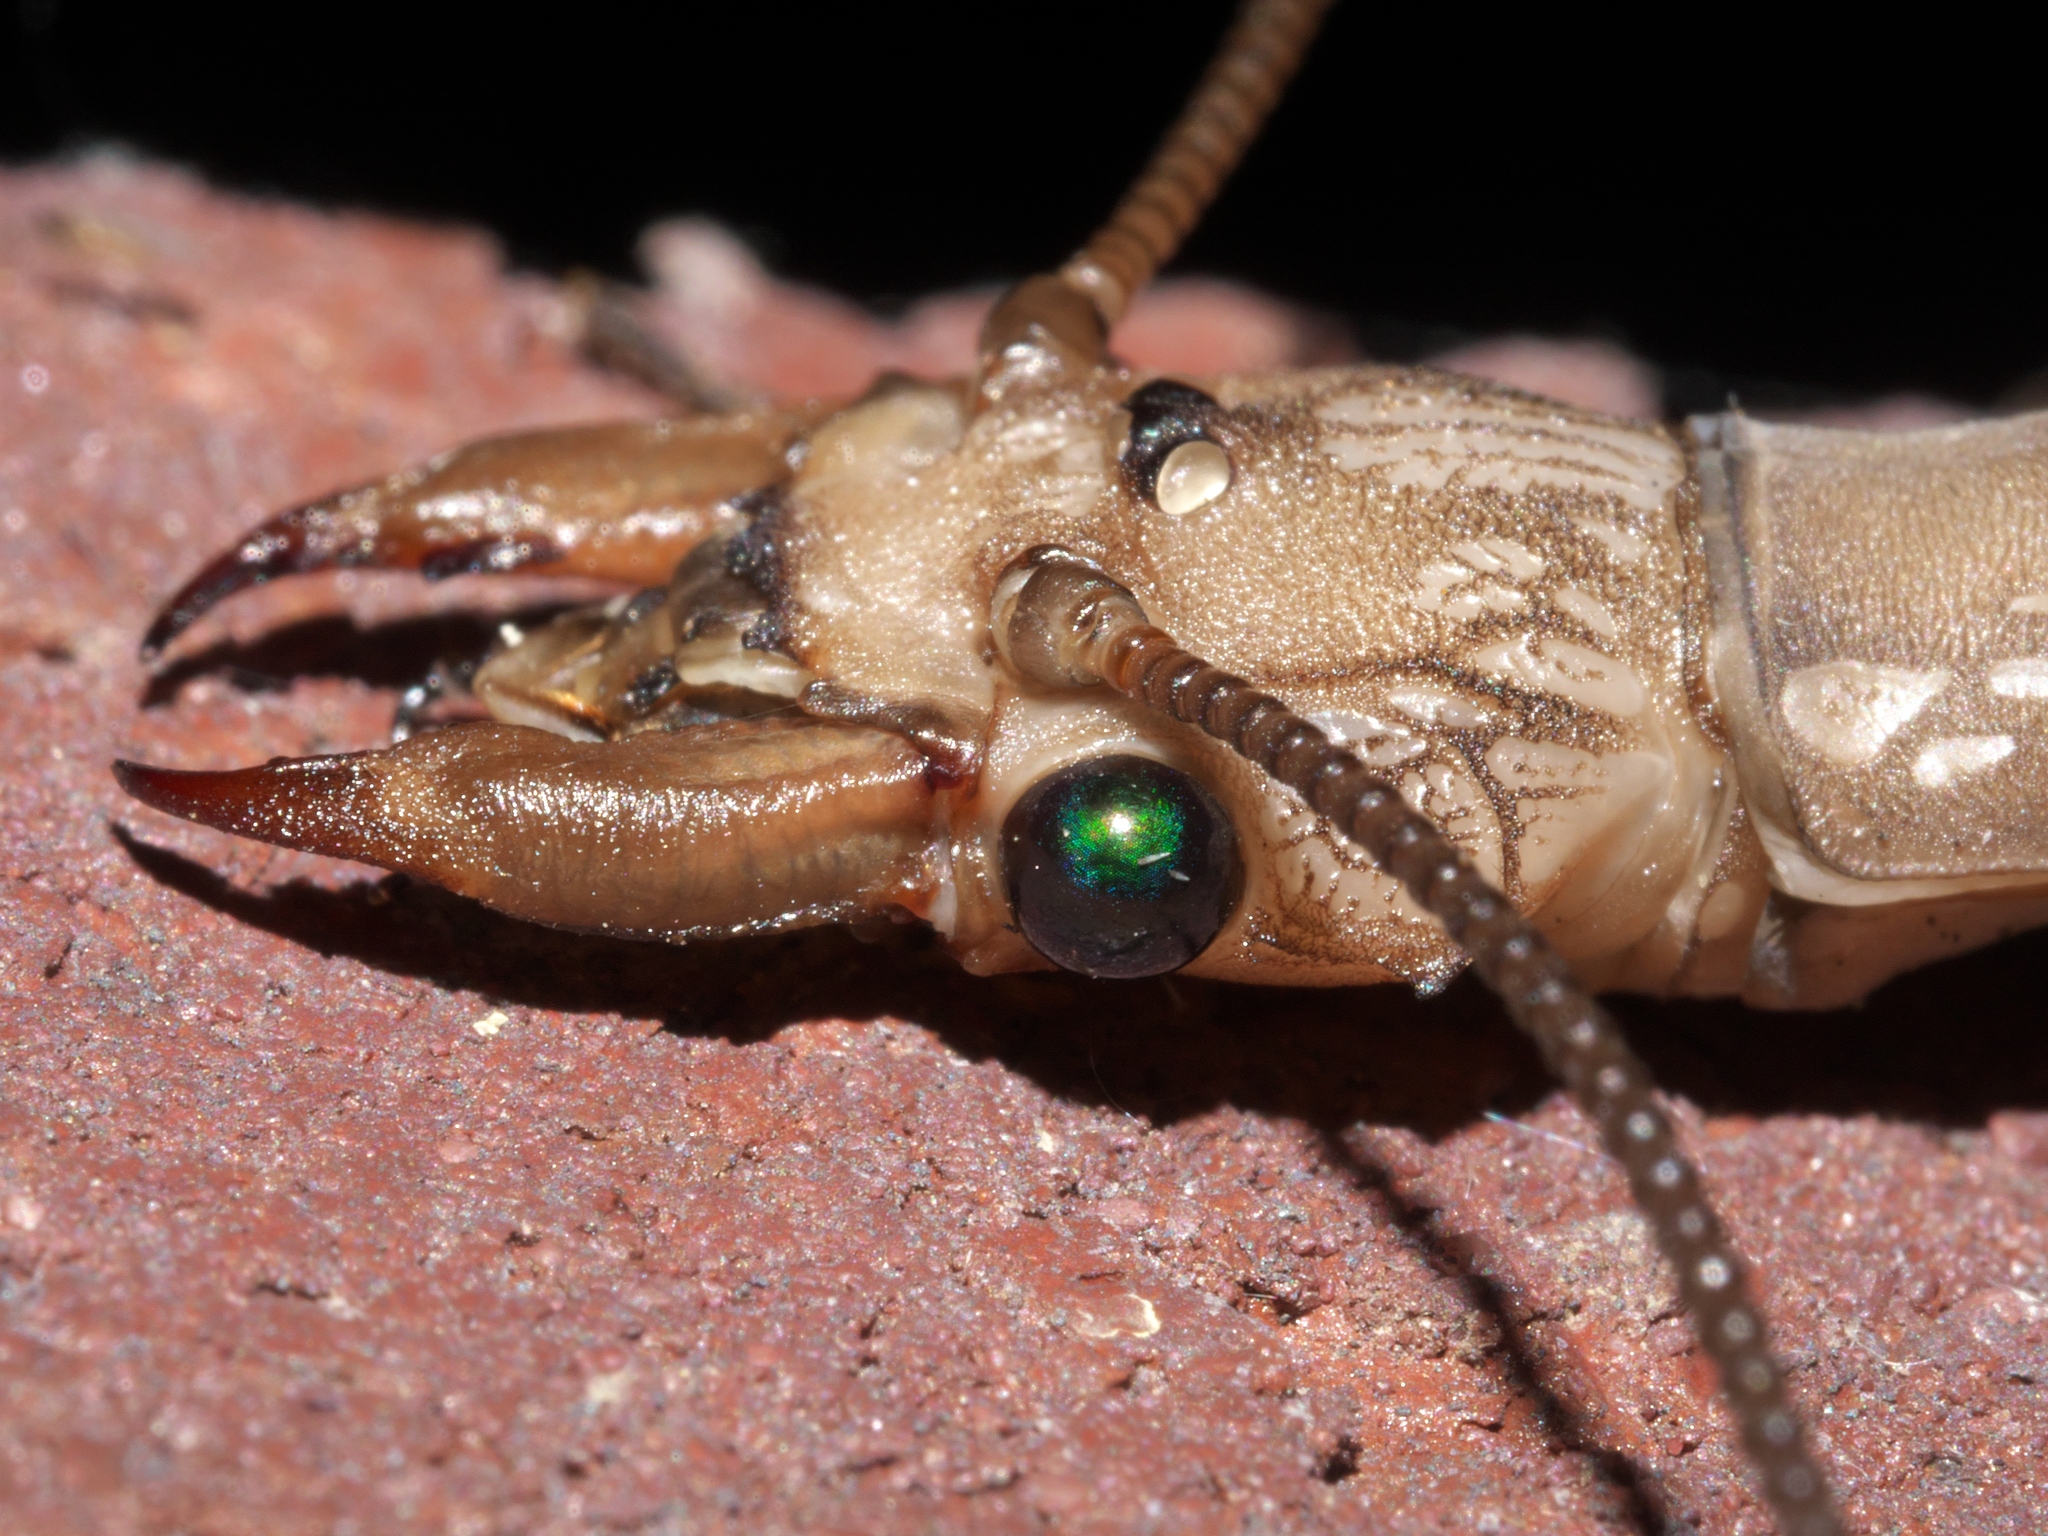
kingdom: Animalia
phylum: Arthropoda
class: Insecta
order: Megaloptera
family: Corydalidae
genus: Corydalus
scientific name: Corydalus cornutus
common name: Dobsonfly
